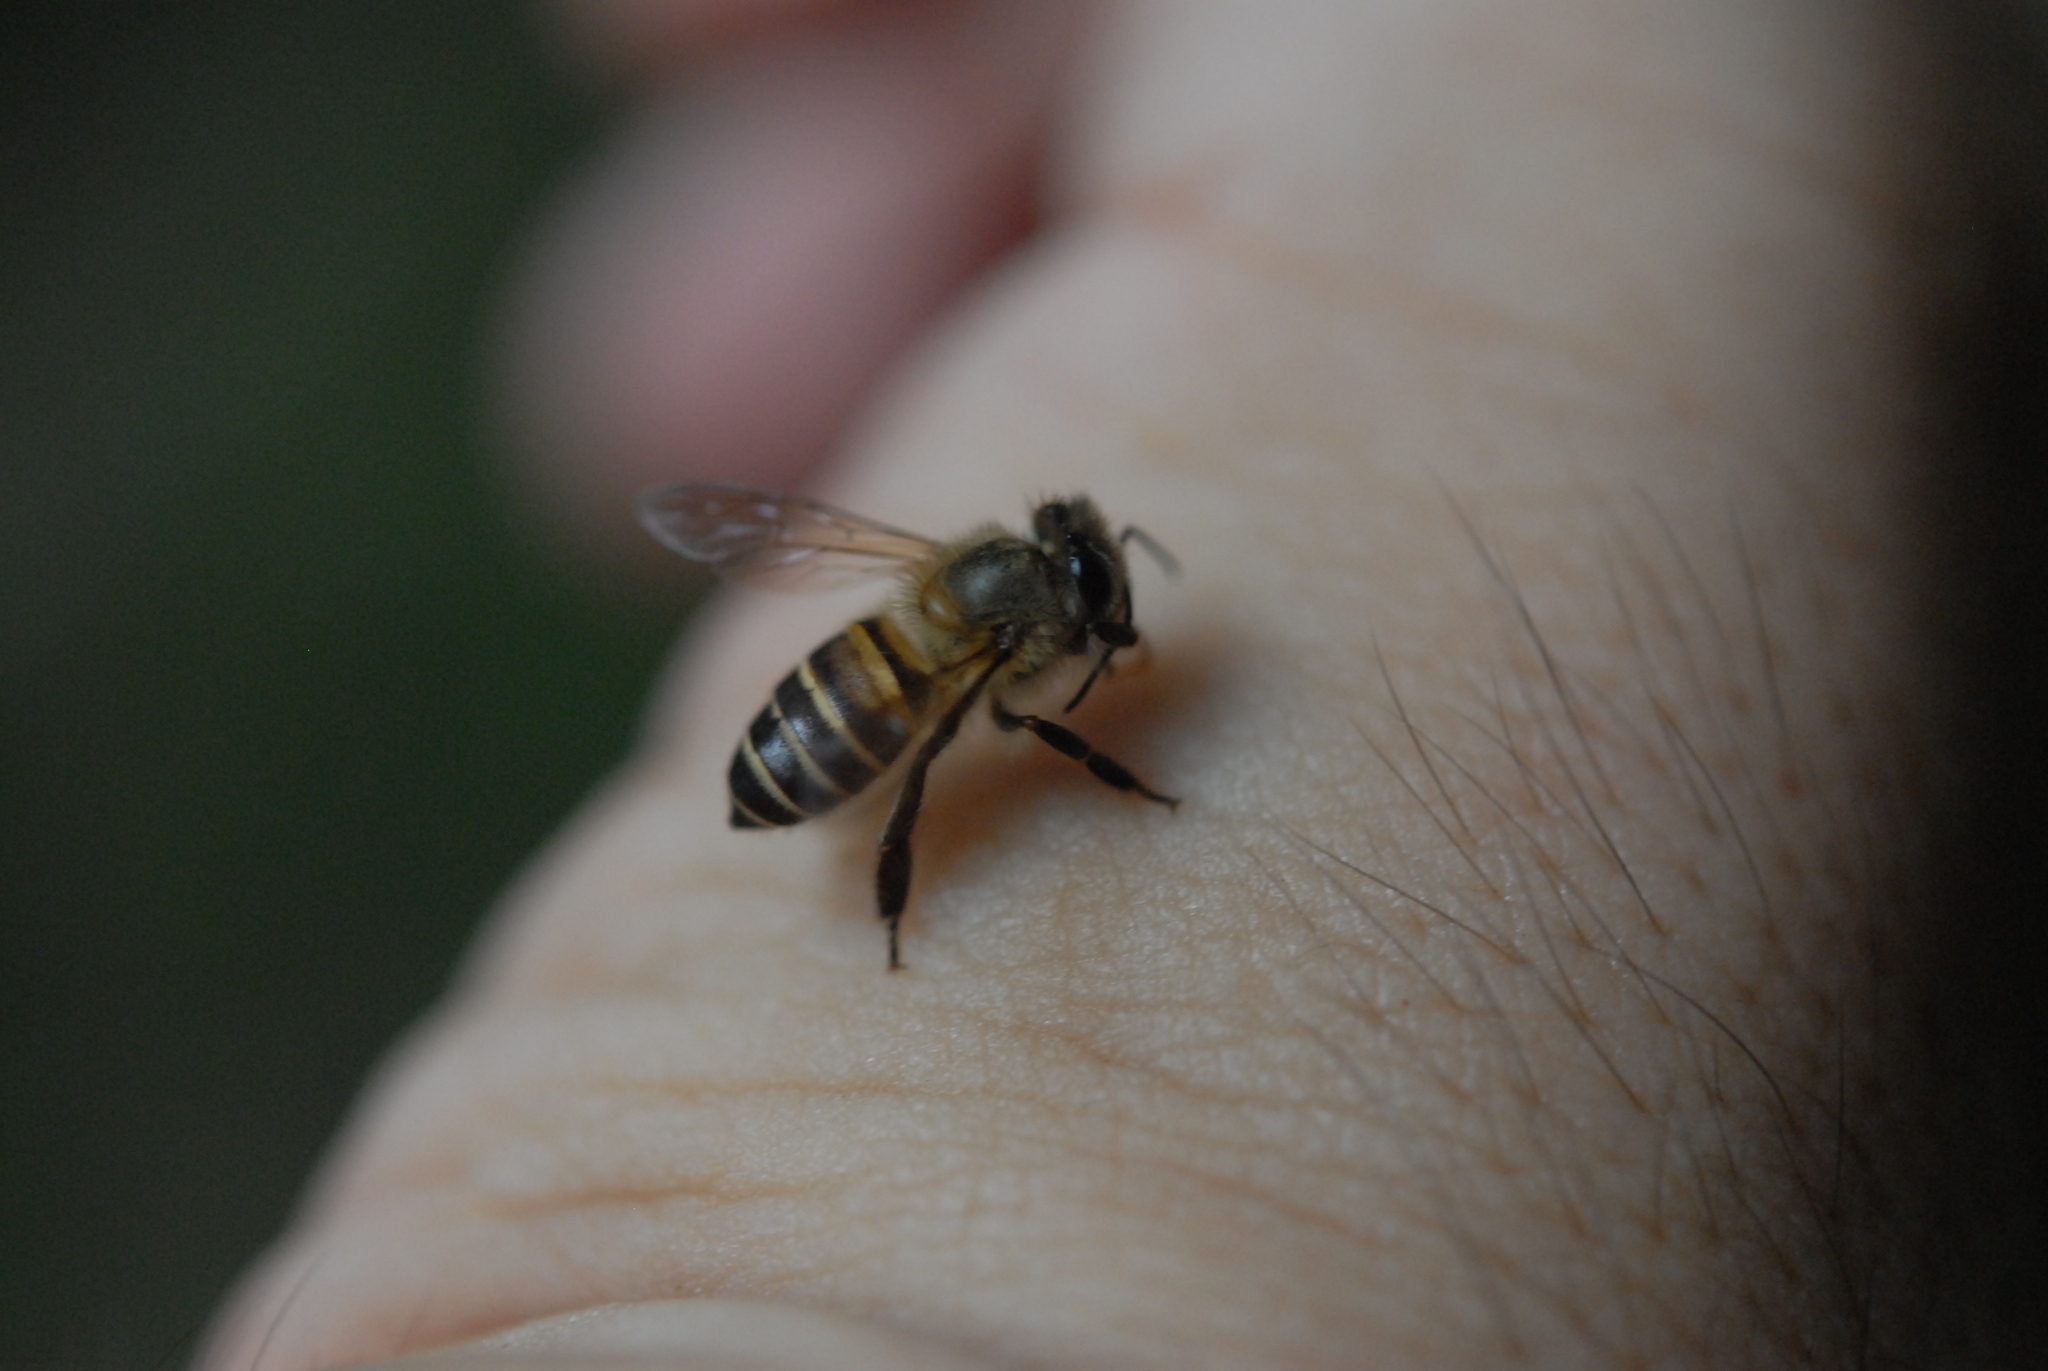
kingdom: Animalia
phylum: Arthropoda
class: Insecta
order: Hymenoptera
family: Apidae
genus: Apis
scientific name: Apis cerana
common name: Honey bee
